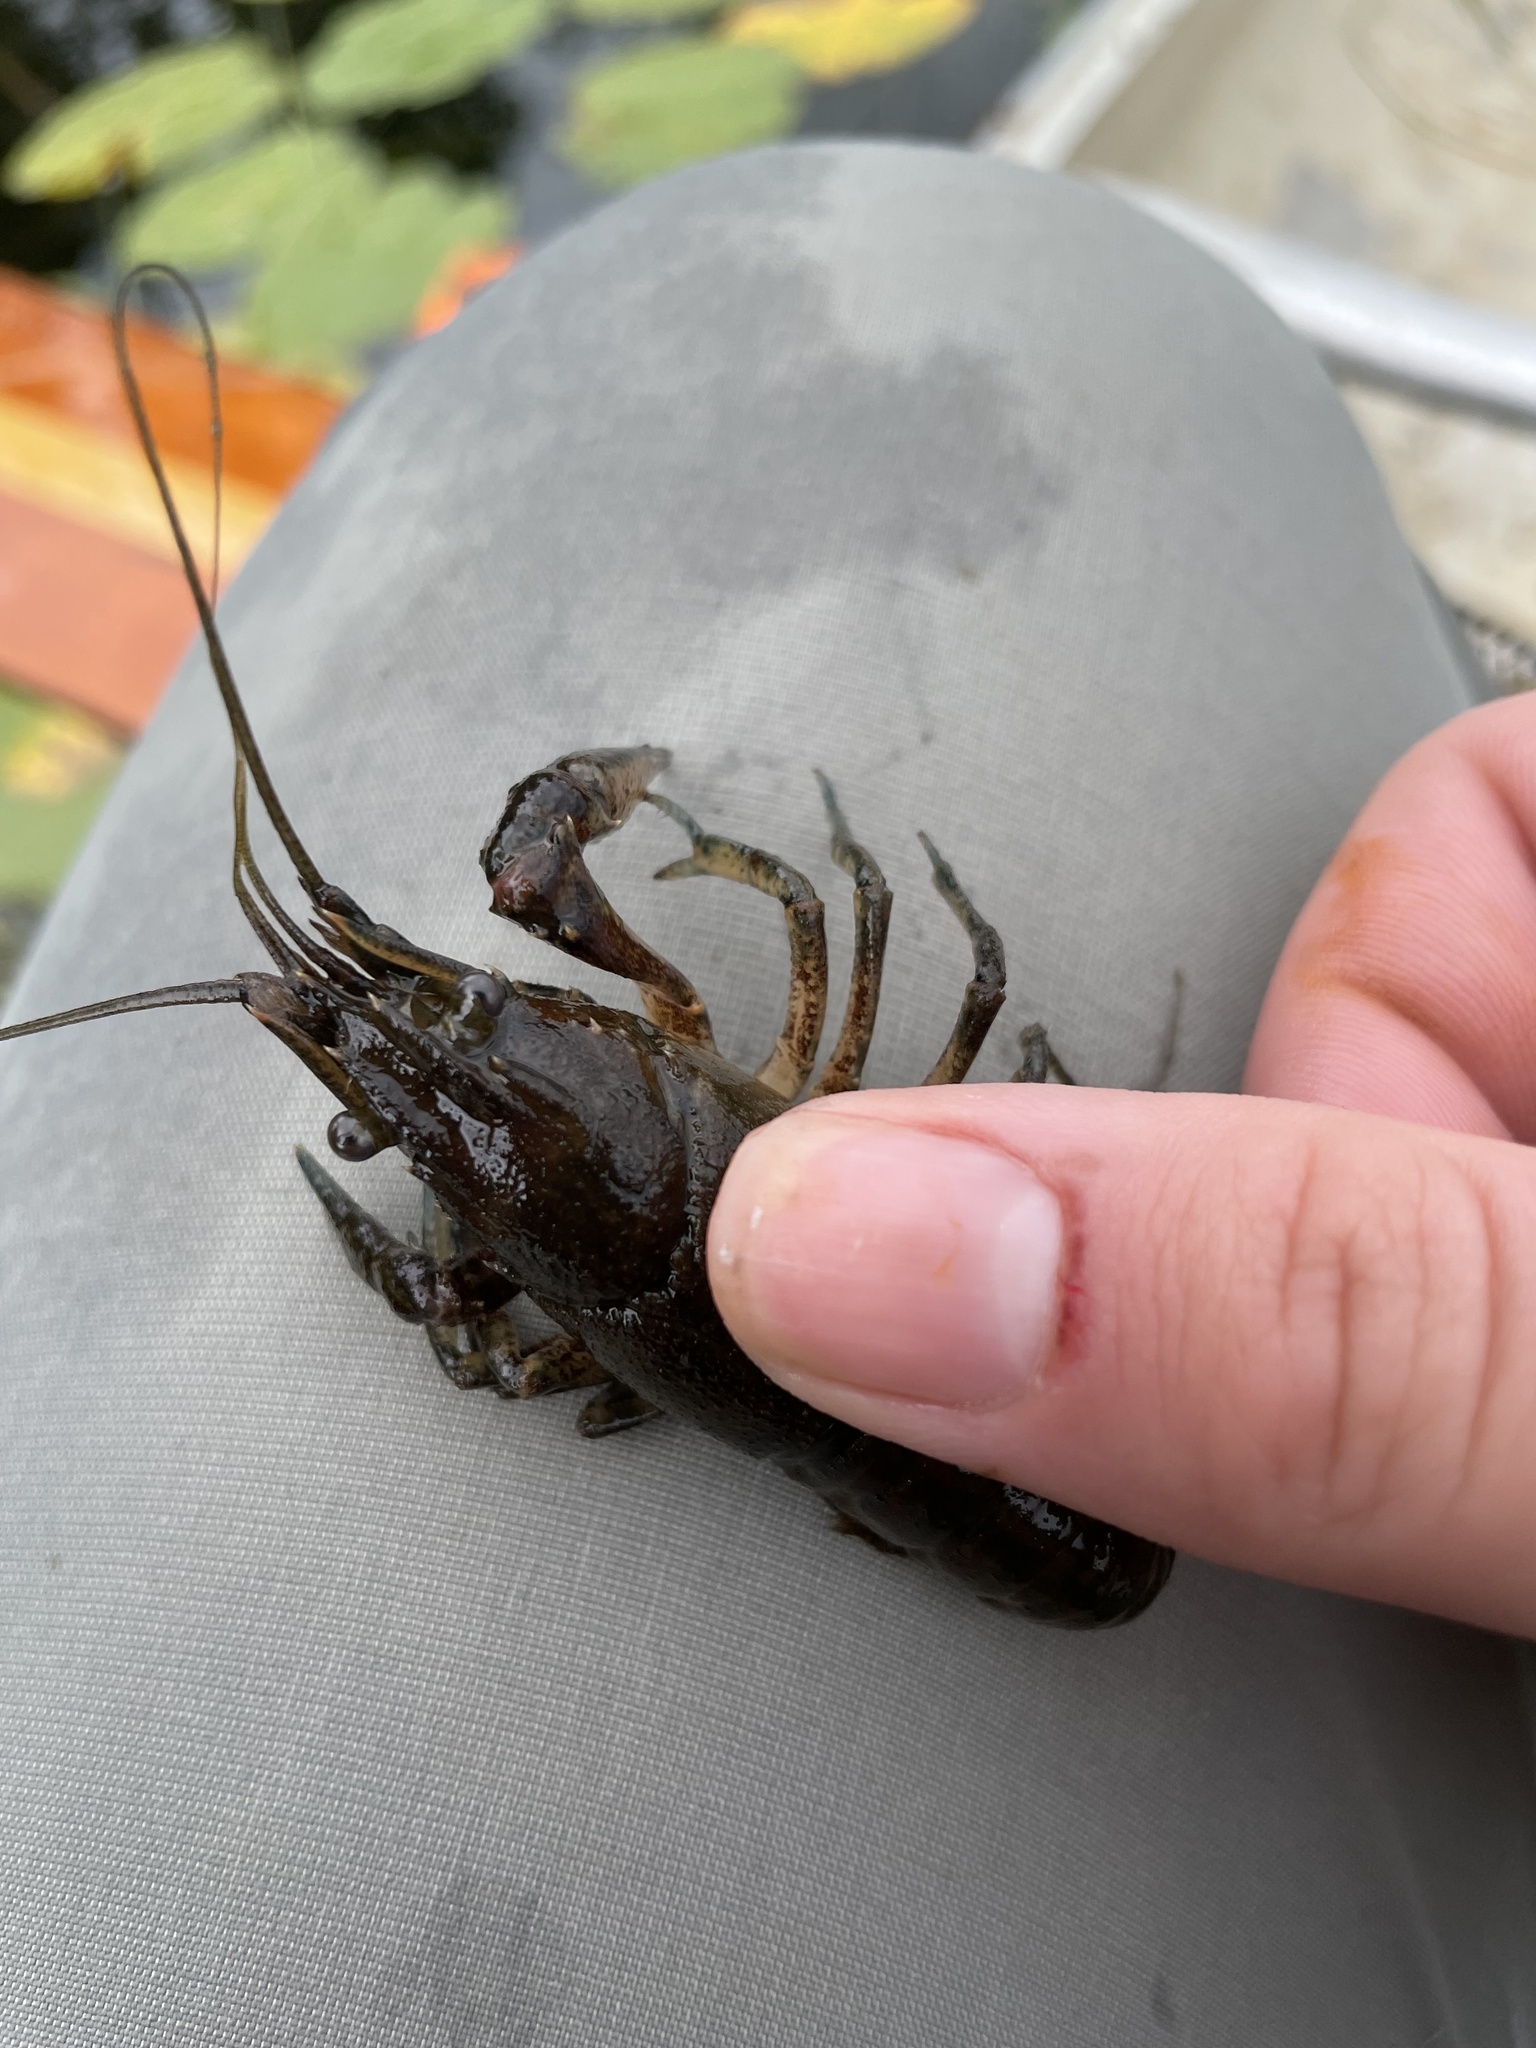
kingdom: Animalia
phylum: Arthropoda
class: Malacostraca
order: Decapoda
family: Cambaridae
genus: Faxonius
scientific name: Faxonius limosus
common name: American crayfish
